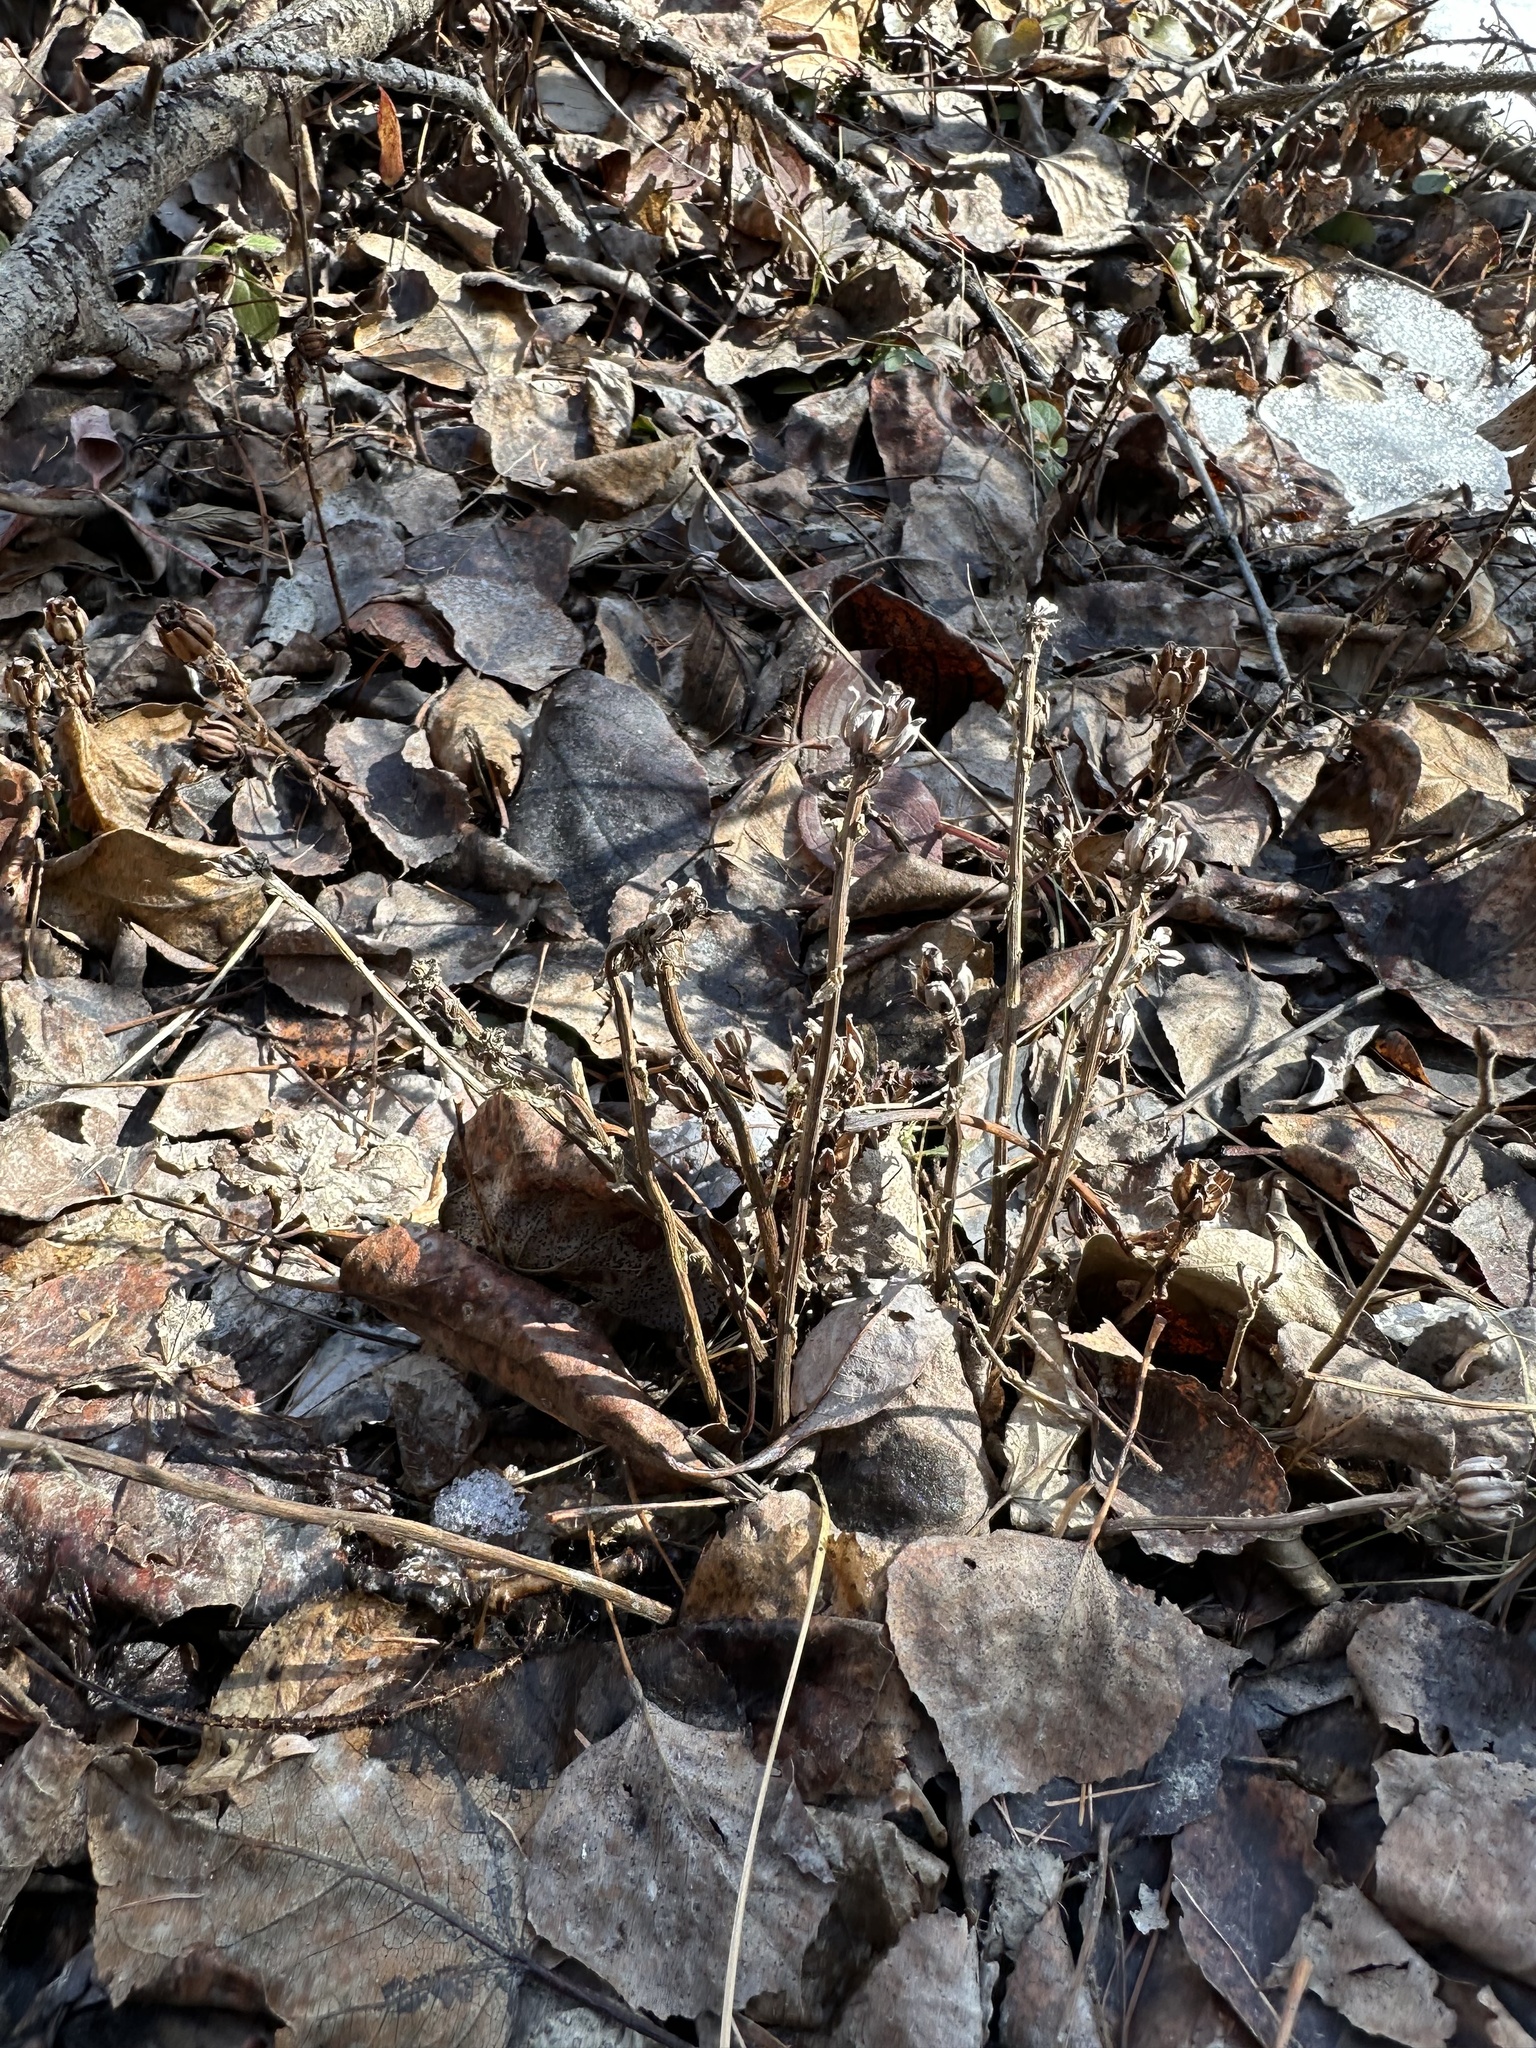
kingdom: Plantae
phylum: Tracheophyta
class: Magnoliopsida
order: Ericales
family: Ericaceae
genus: Monotropa
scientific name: Monotropa uniflora
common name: Convulsion root
